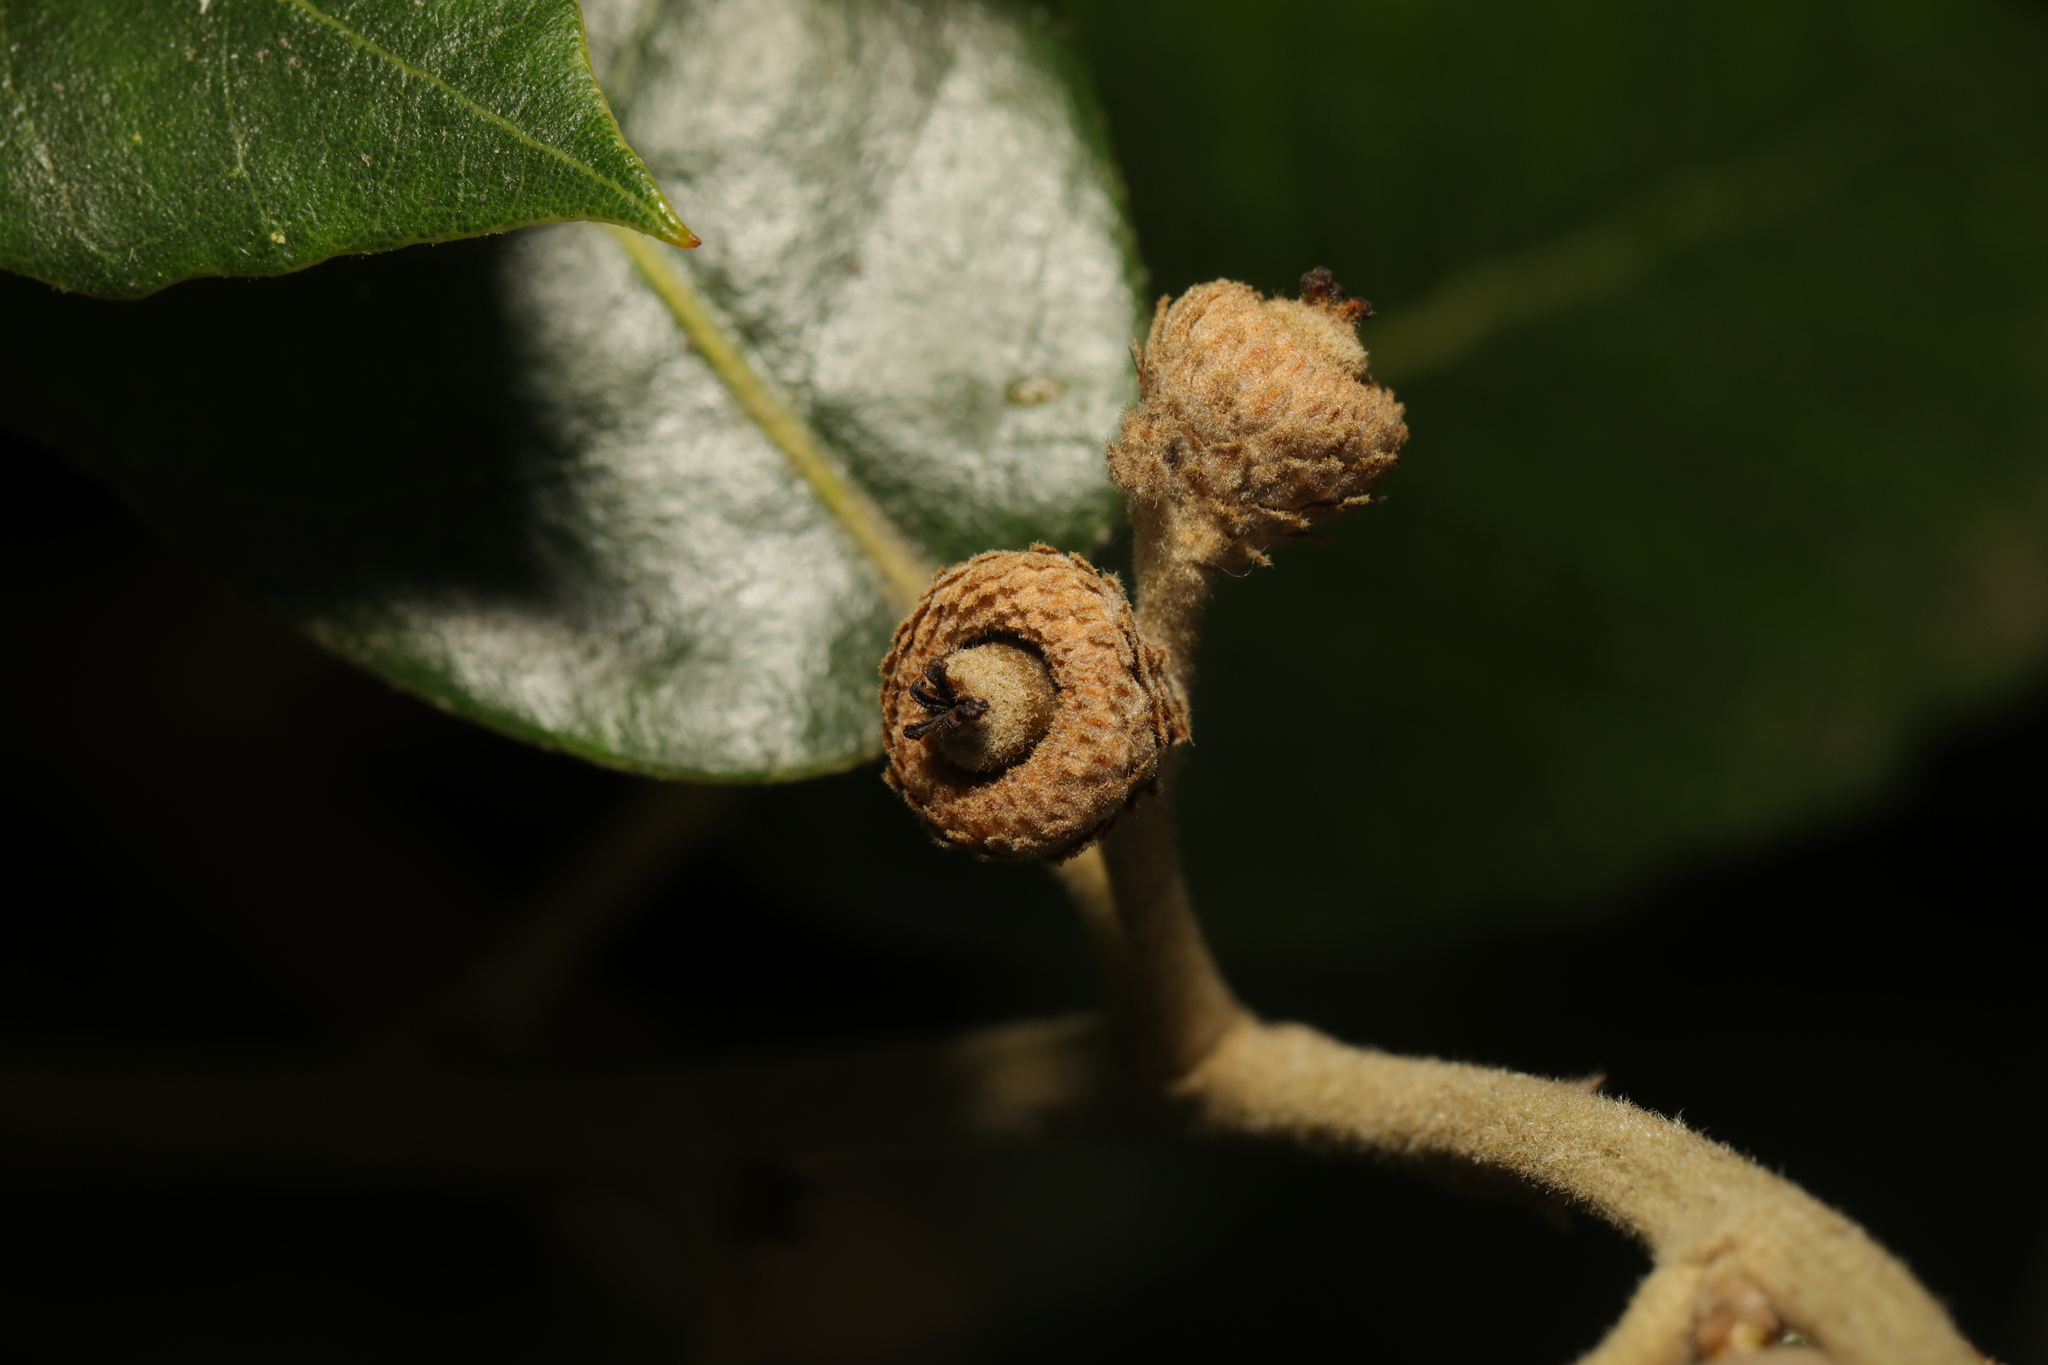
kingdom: Plantae
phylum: Tracheophyta
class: Magnoliopsida
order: Fagales
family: Fagaceae
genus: Quercus
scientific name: Quercus ilex
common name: Evergreen oak
